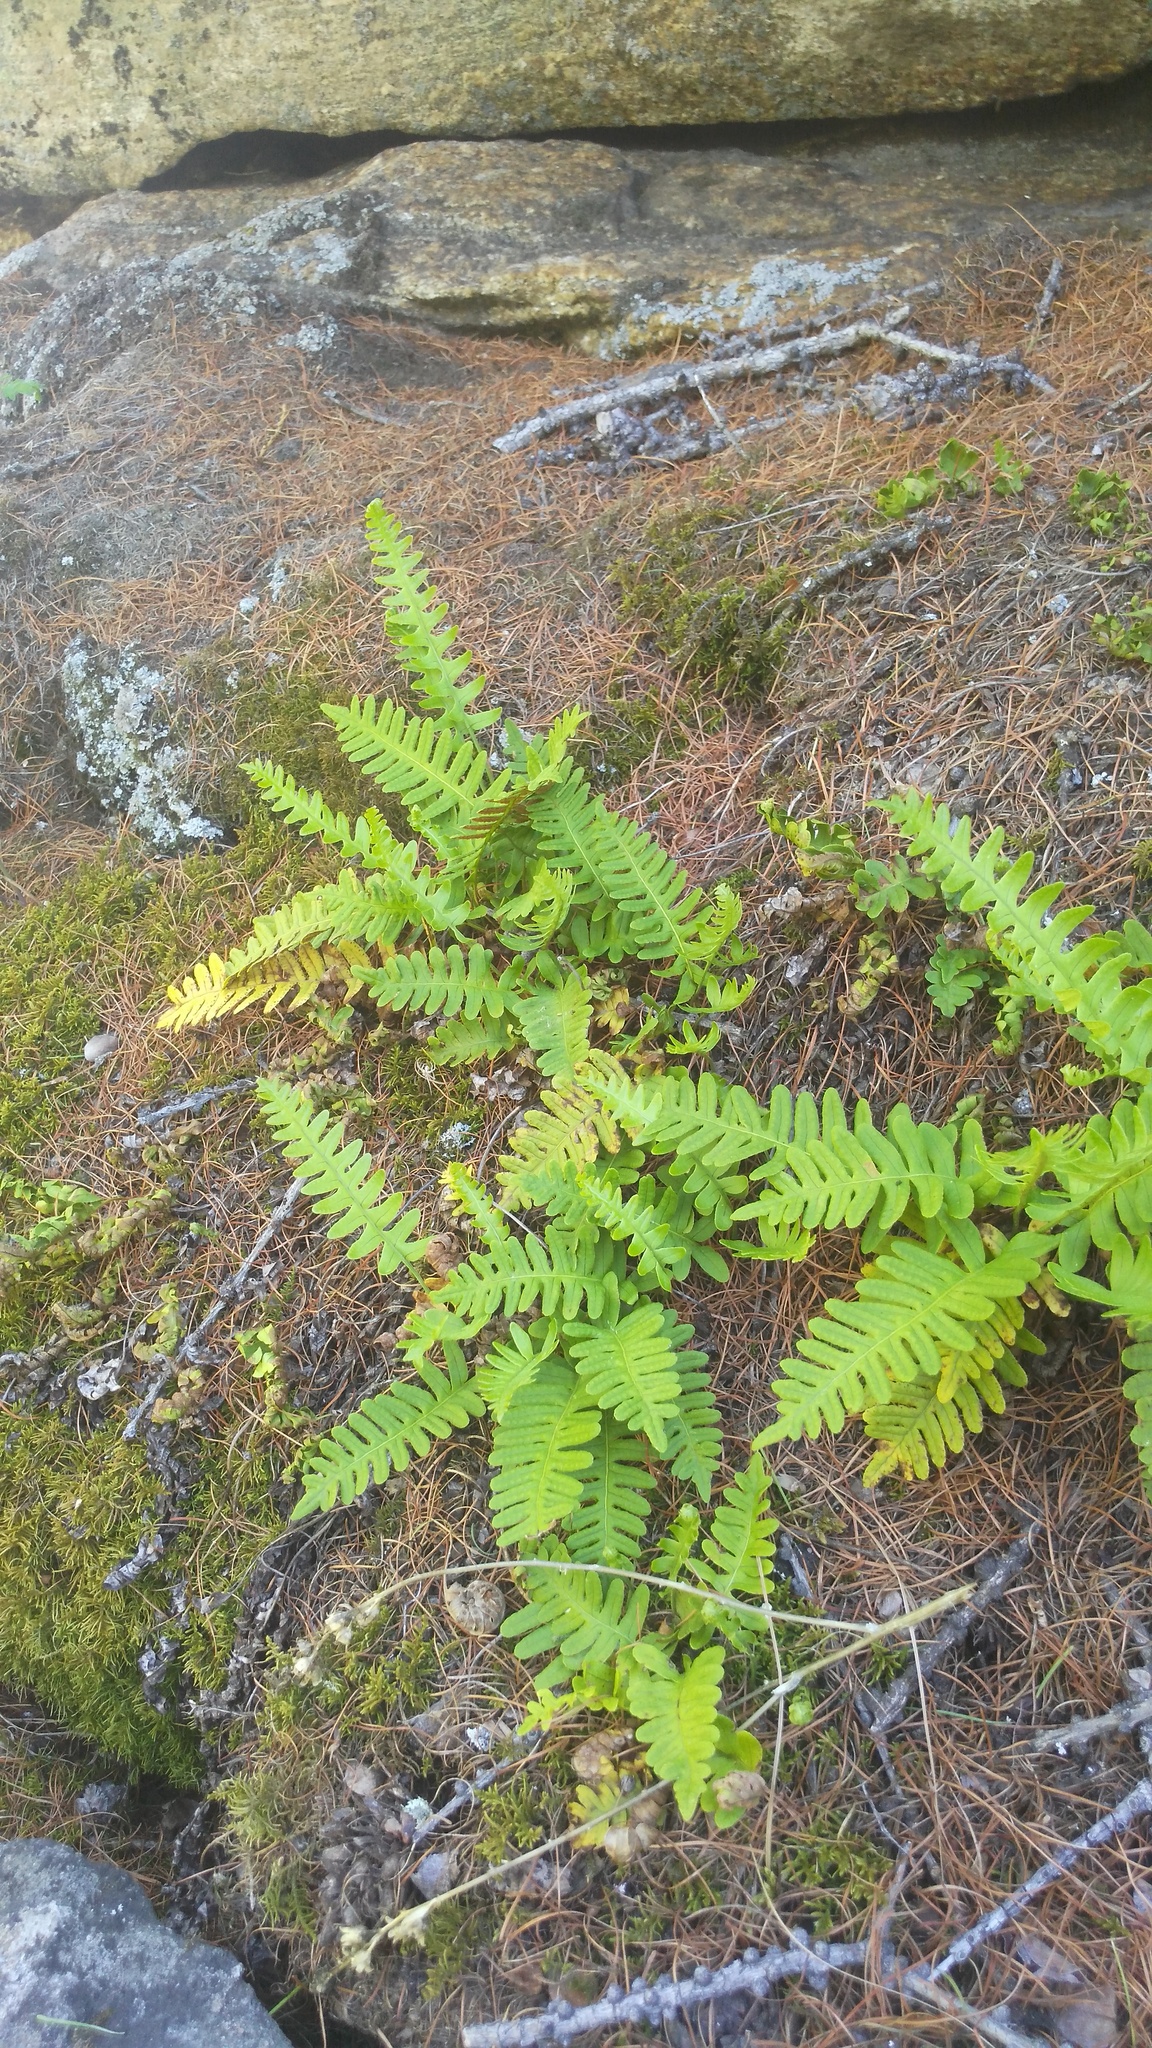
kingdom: Plantae
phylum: Tracheophyta
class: Polypodiopsida
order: Polypodiales
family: Polypodiaceae
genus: Polypodium
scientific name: Polypodium sibiricum
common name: Siberian polypody
